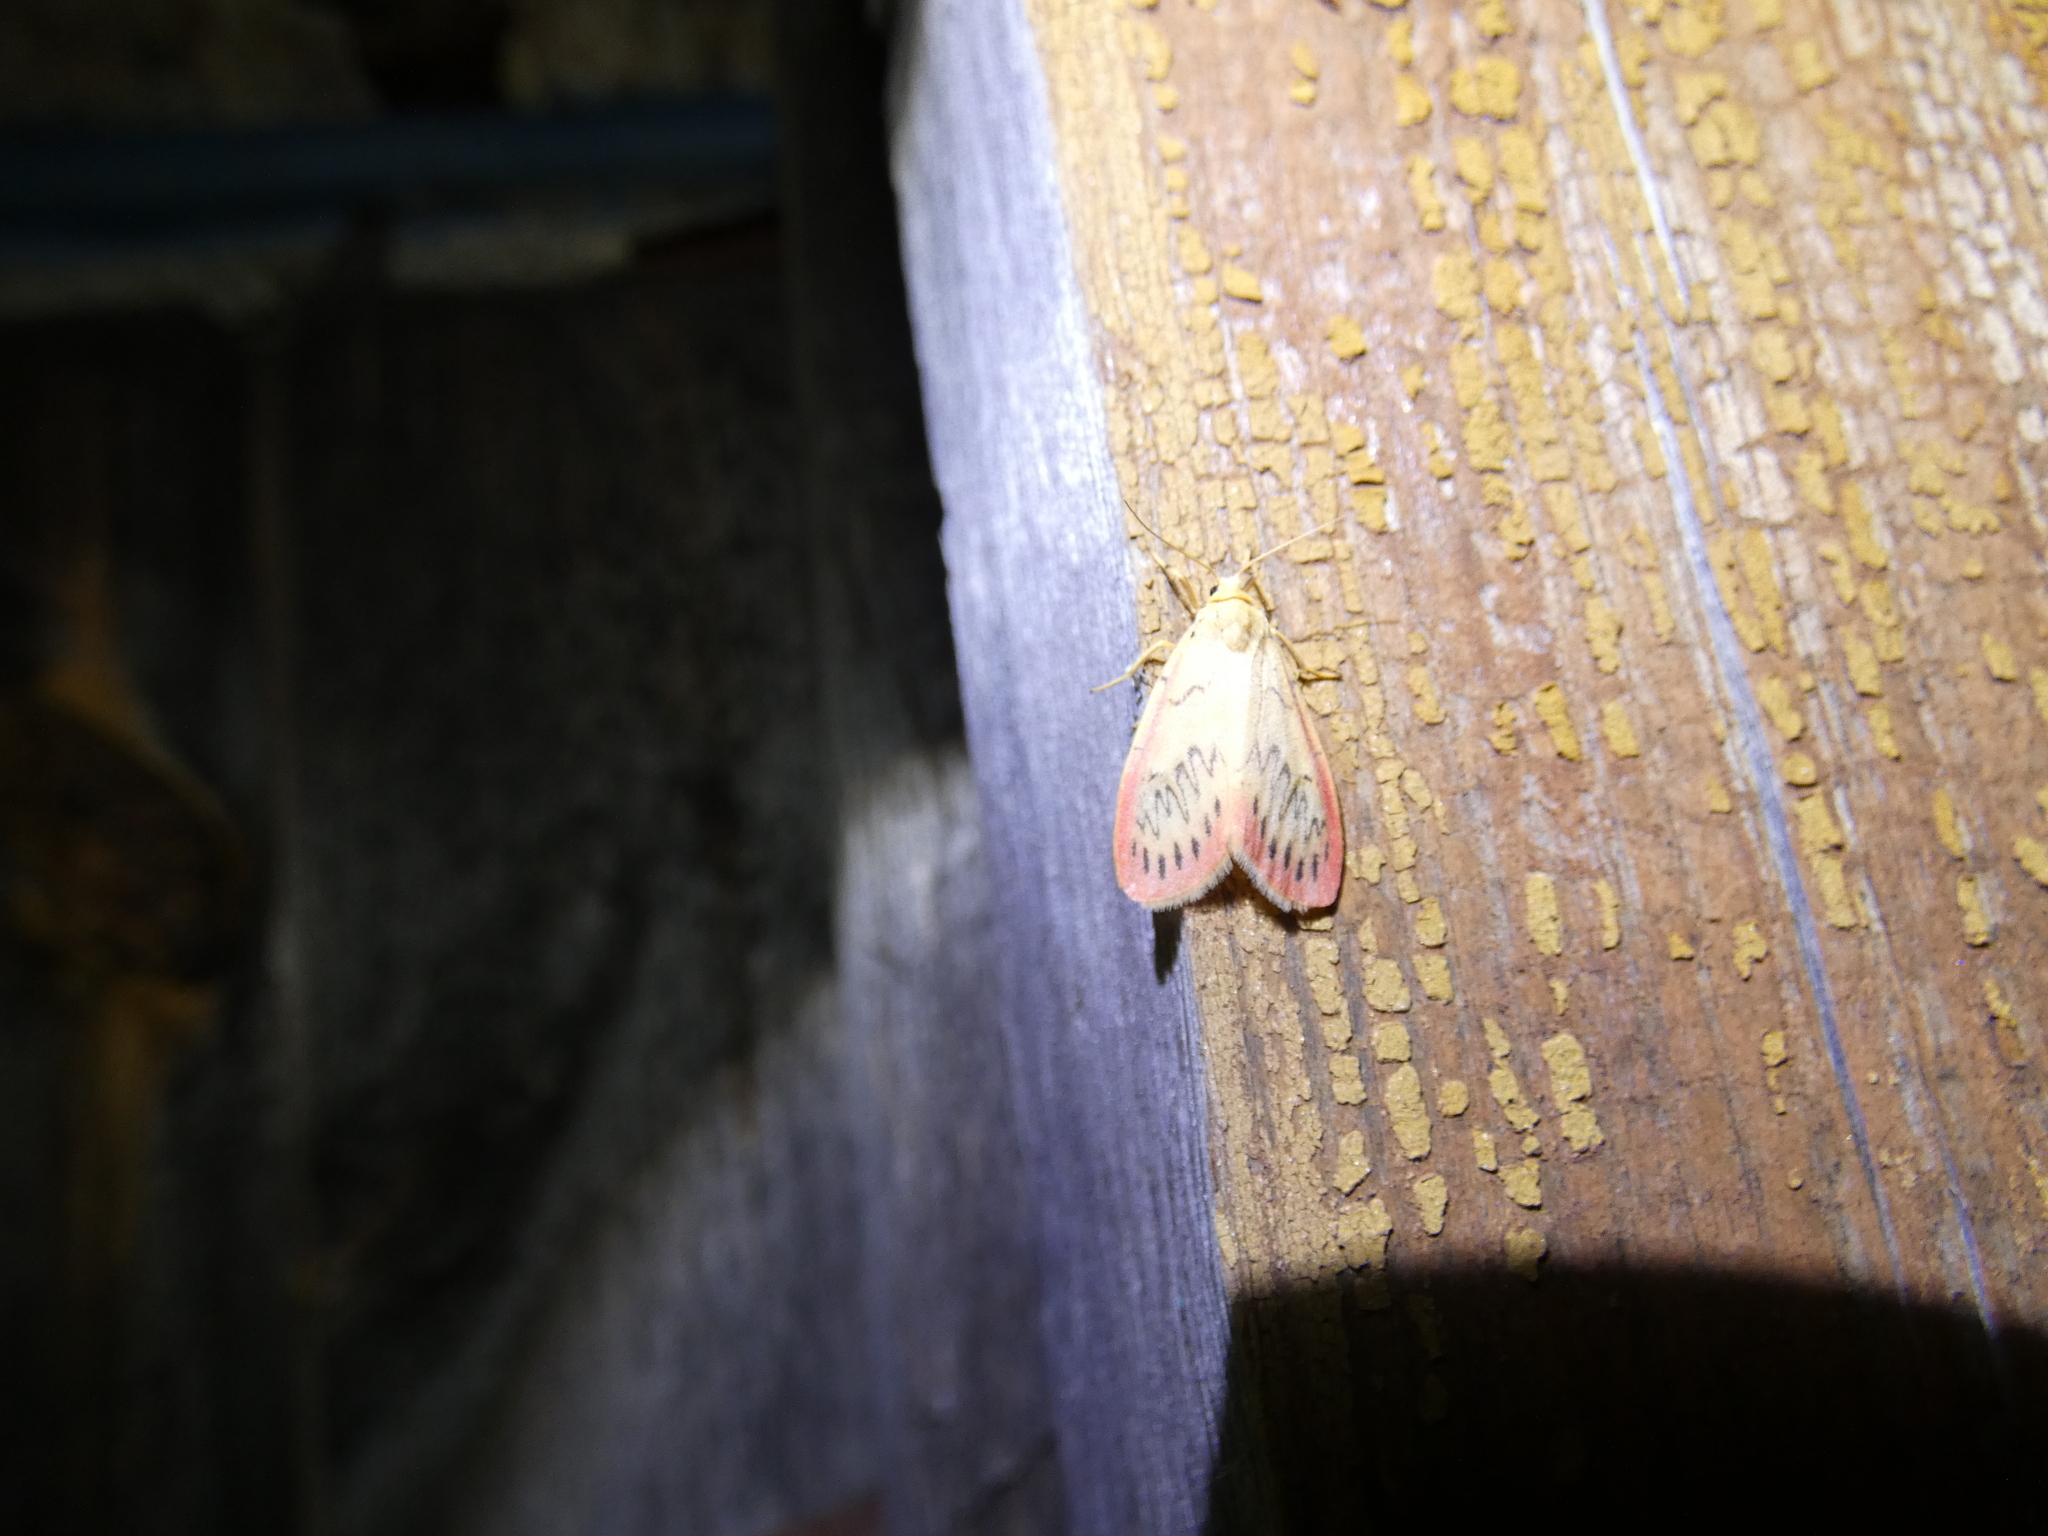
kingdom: Animalia
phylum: Arthropoda
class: Insecta
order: Lepidoptera
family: Erebidae
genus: Miltochrista
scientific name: Miltochrista miniata
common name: Rosy footman
